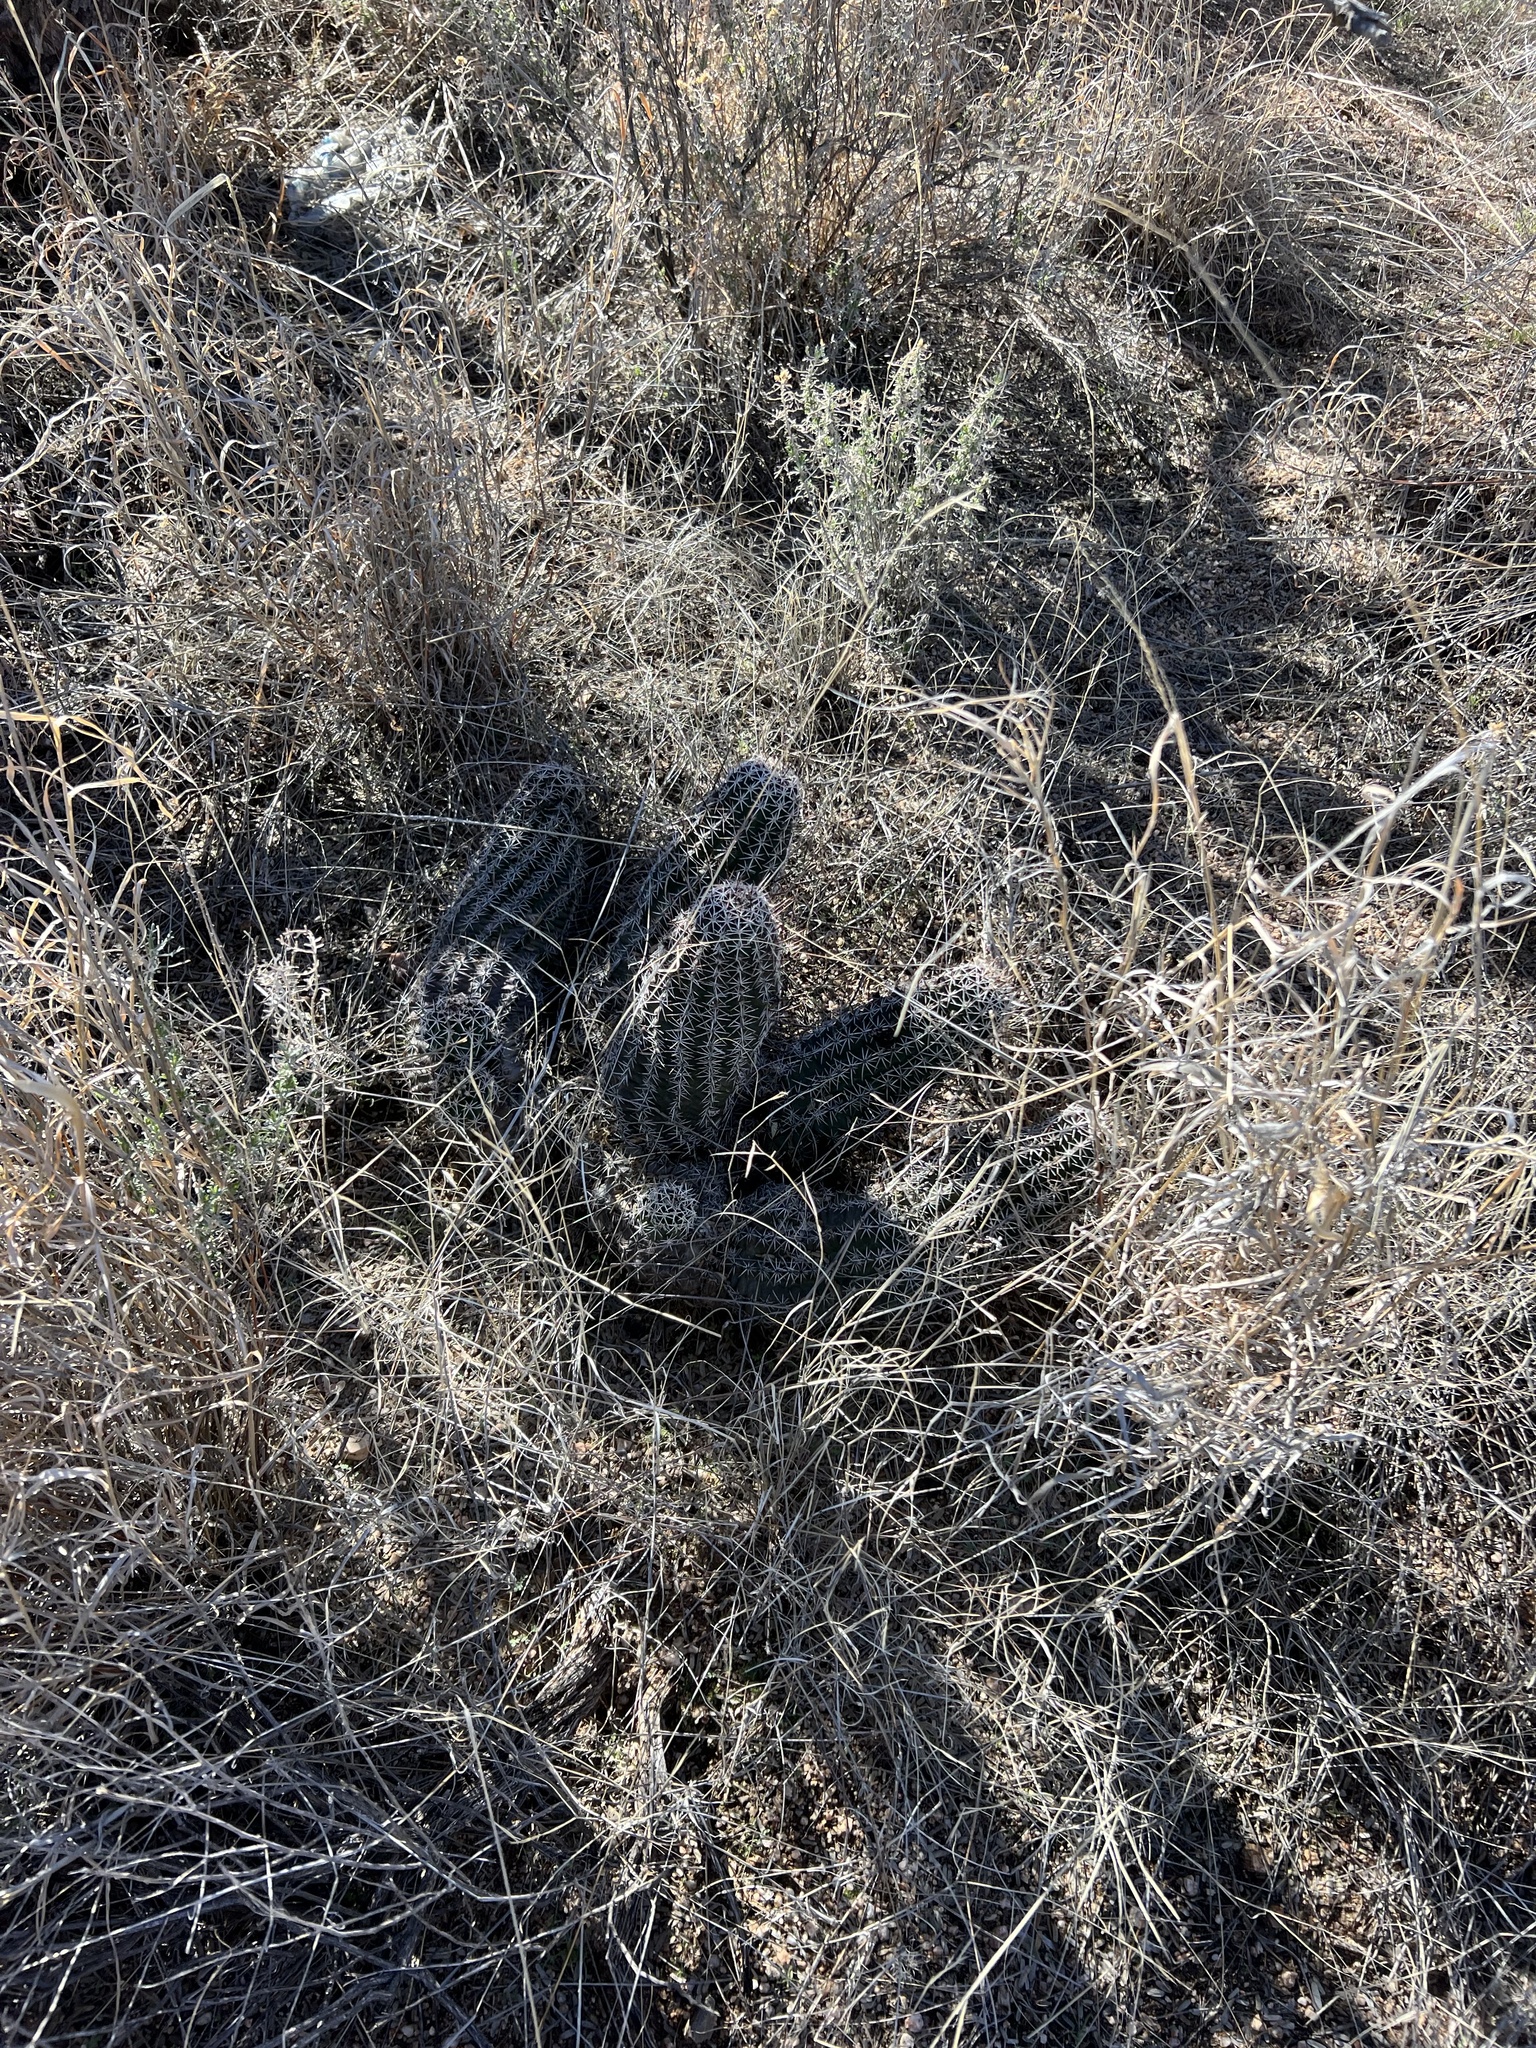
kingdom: Plantae
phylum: Tracheophyta
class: Magnoliopsida
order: Caryophyllales
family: Cactaceae
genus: Echinocereus
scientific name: Echinocereus fendleri
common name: Fendler's hedgehog cactus
